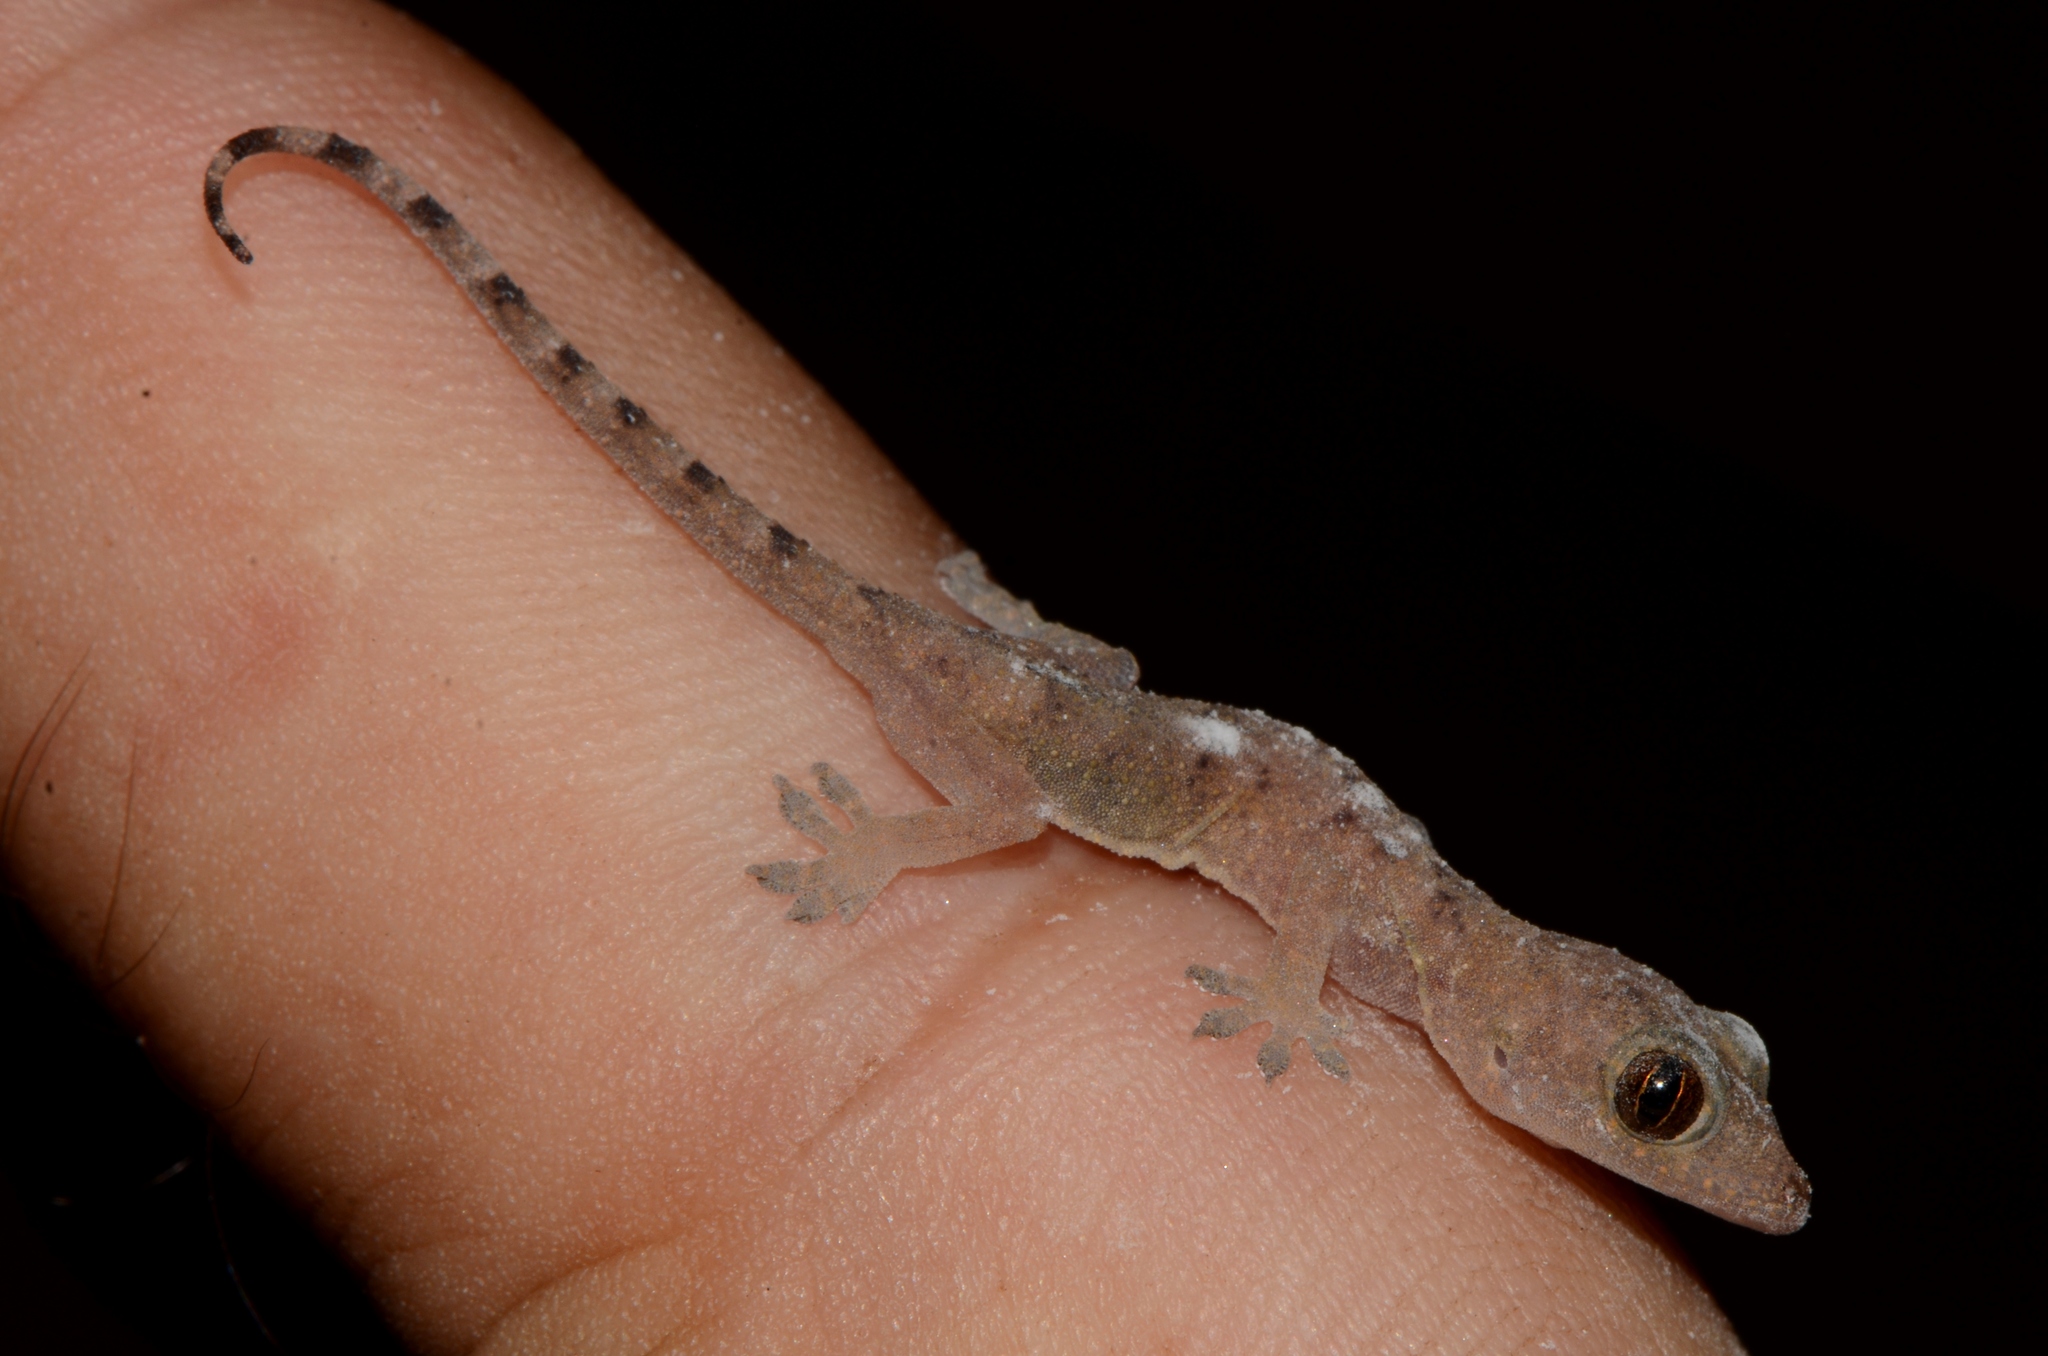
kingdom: Animalia
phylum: Chordata
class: Squamata
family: Gekkonidae
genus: Hemidactylus
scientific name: Hemidactylus mabouia
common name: House gecko
